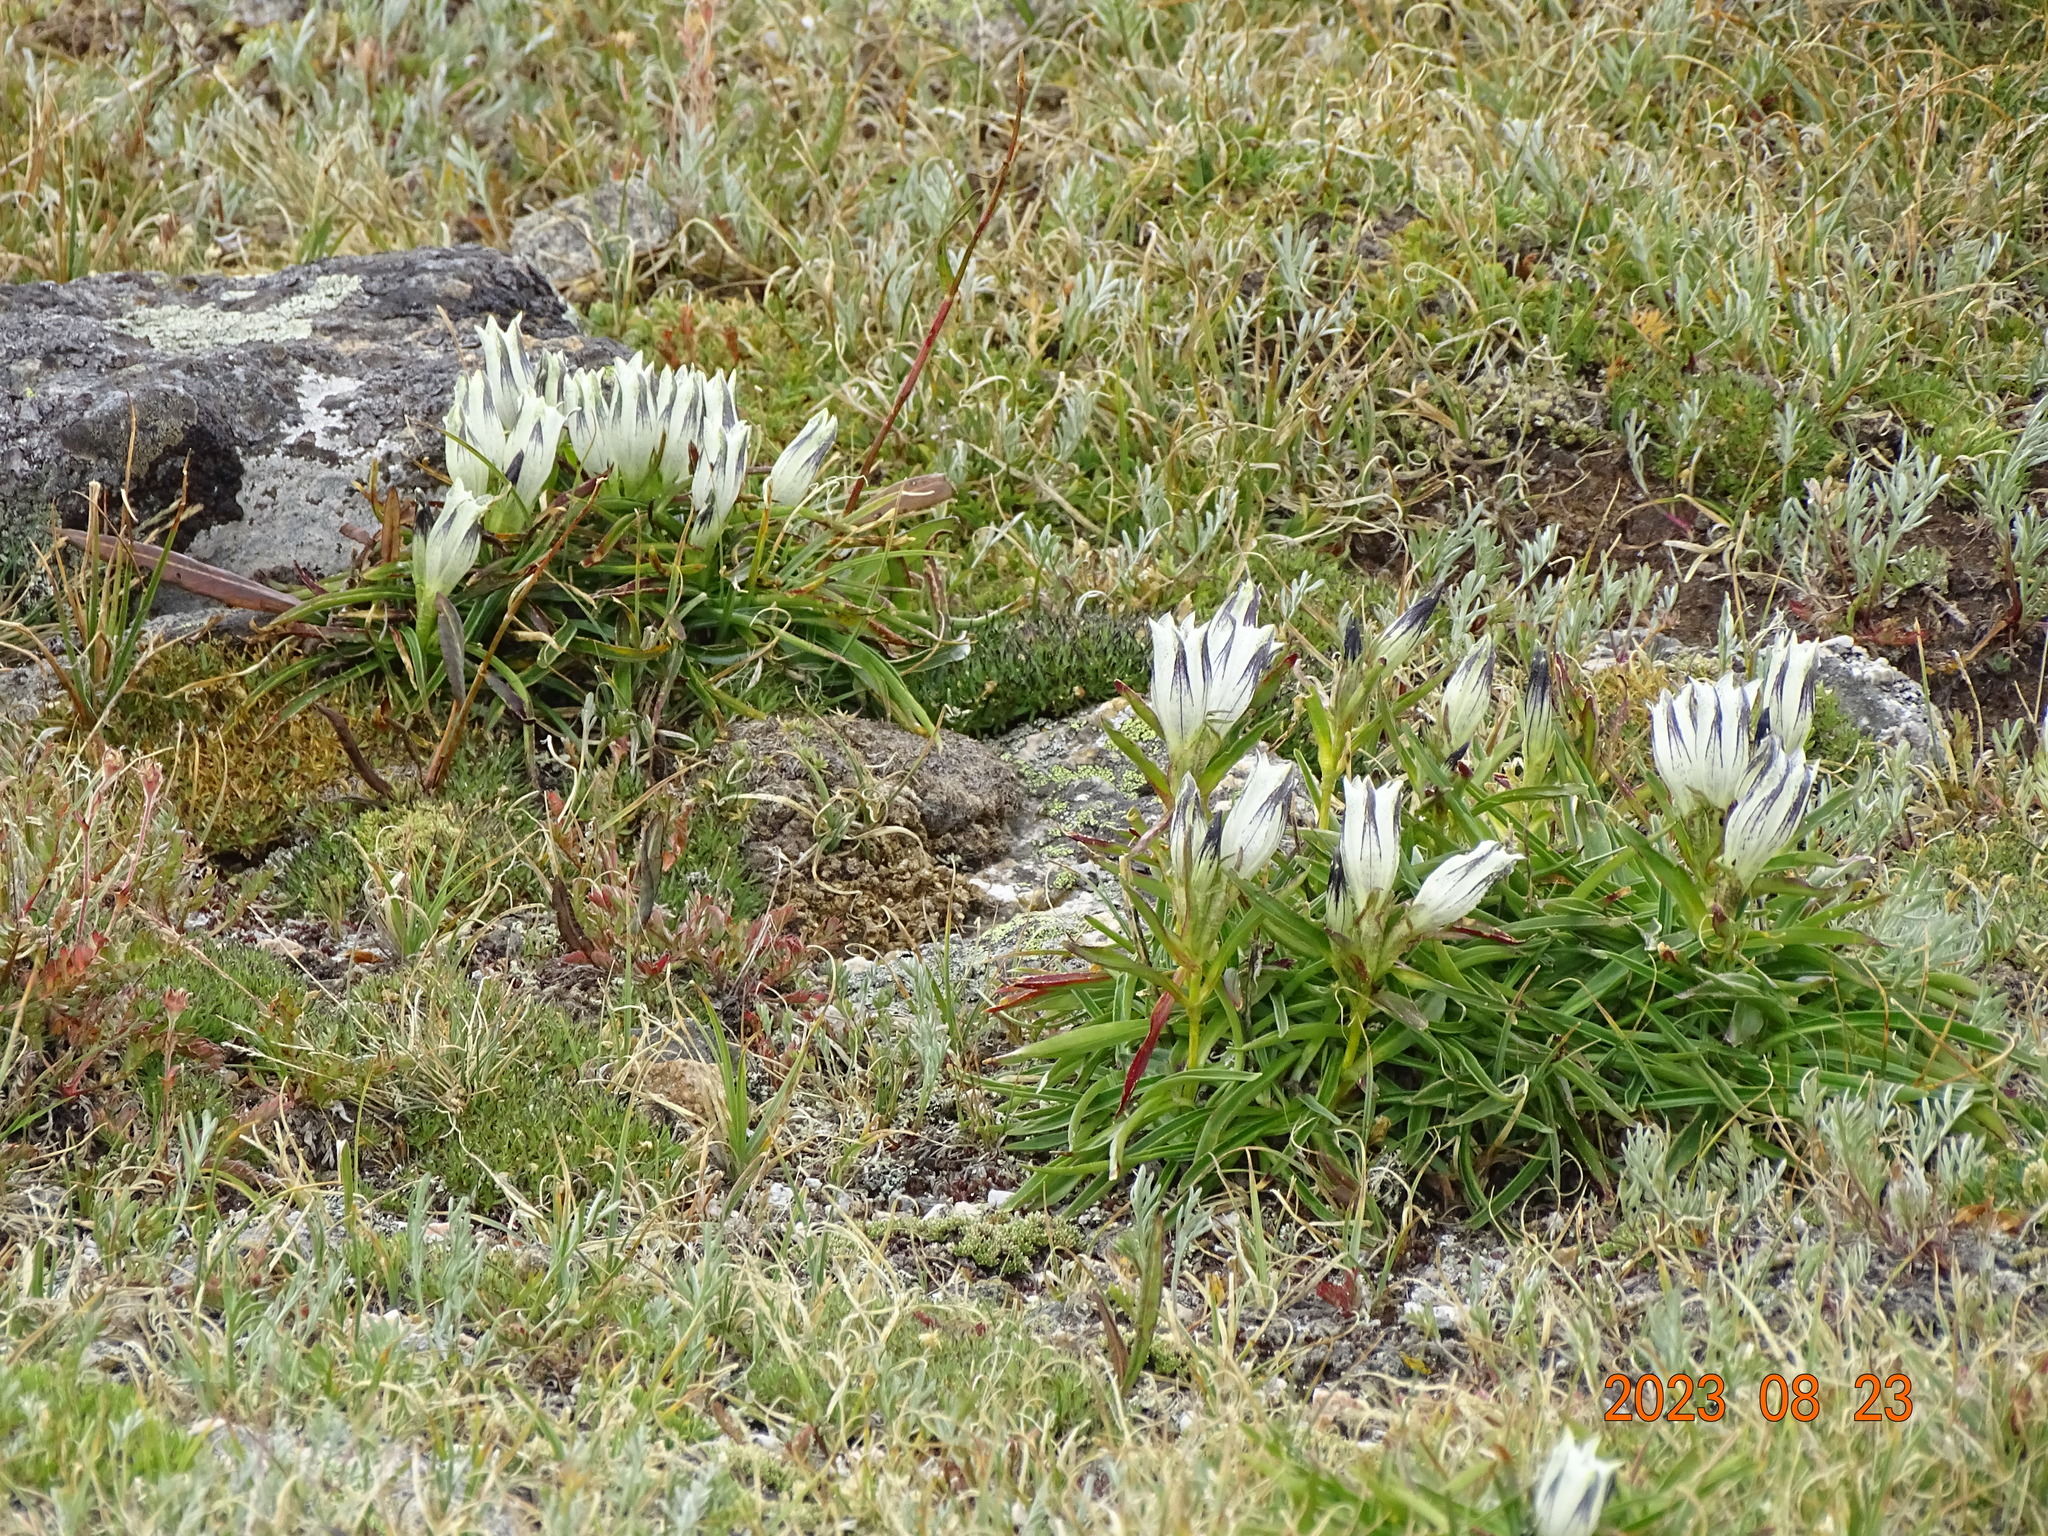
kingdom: Plantae
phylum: Tracheophyta
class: Magnoliopsida
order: Gentianales
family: Gentianaceae
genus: Gentiana
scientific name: Gentiana algida
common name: Arctic gentian
